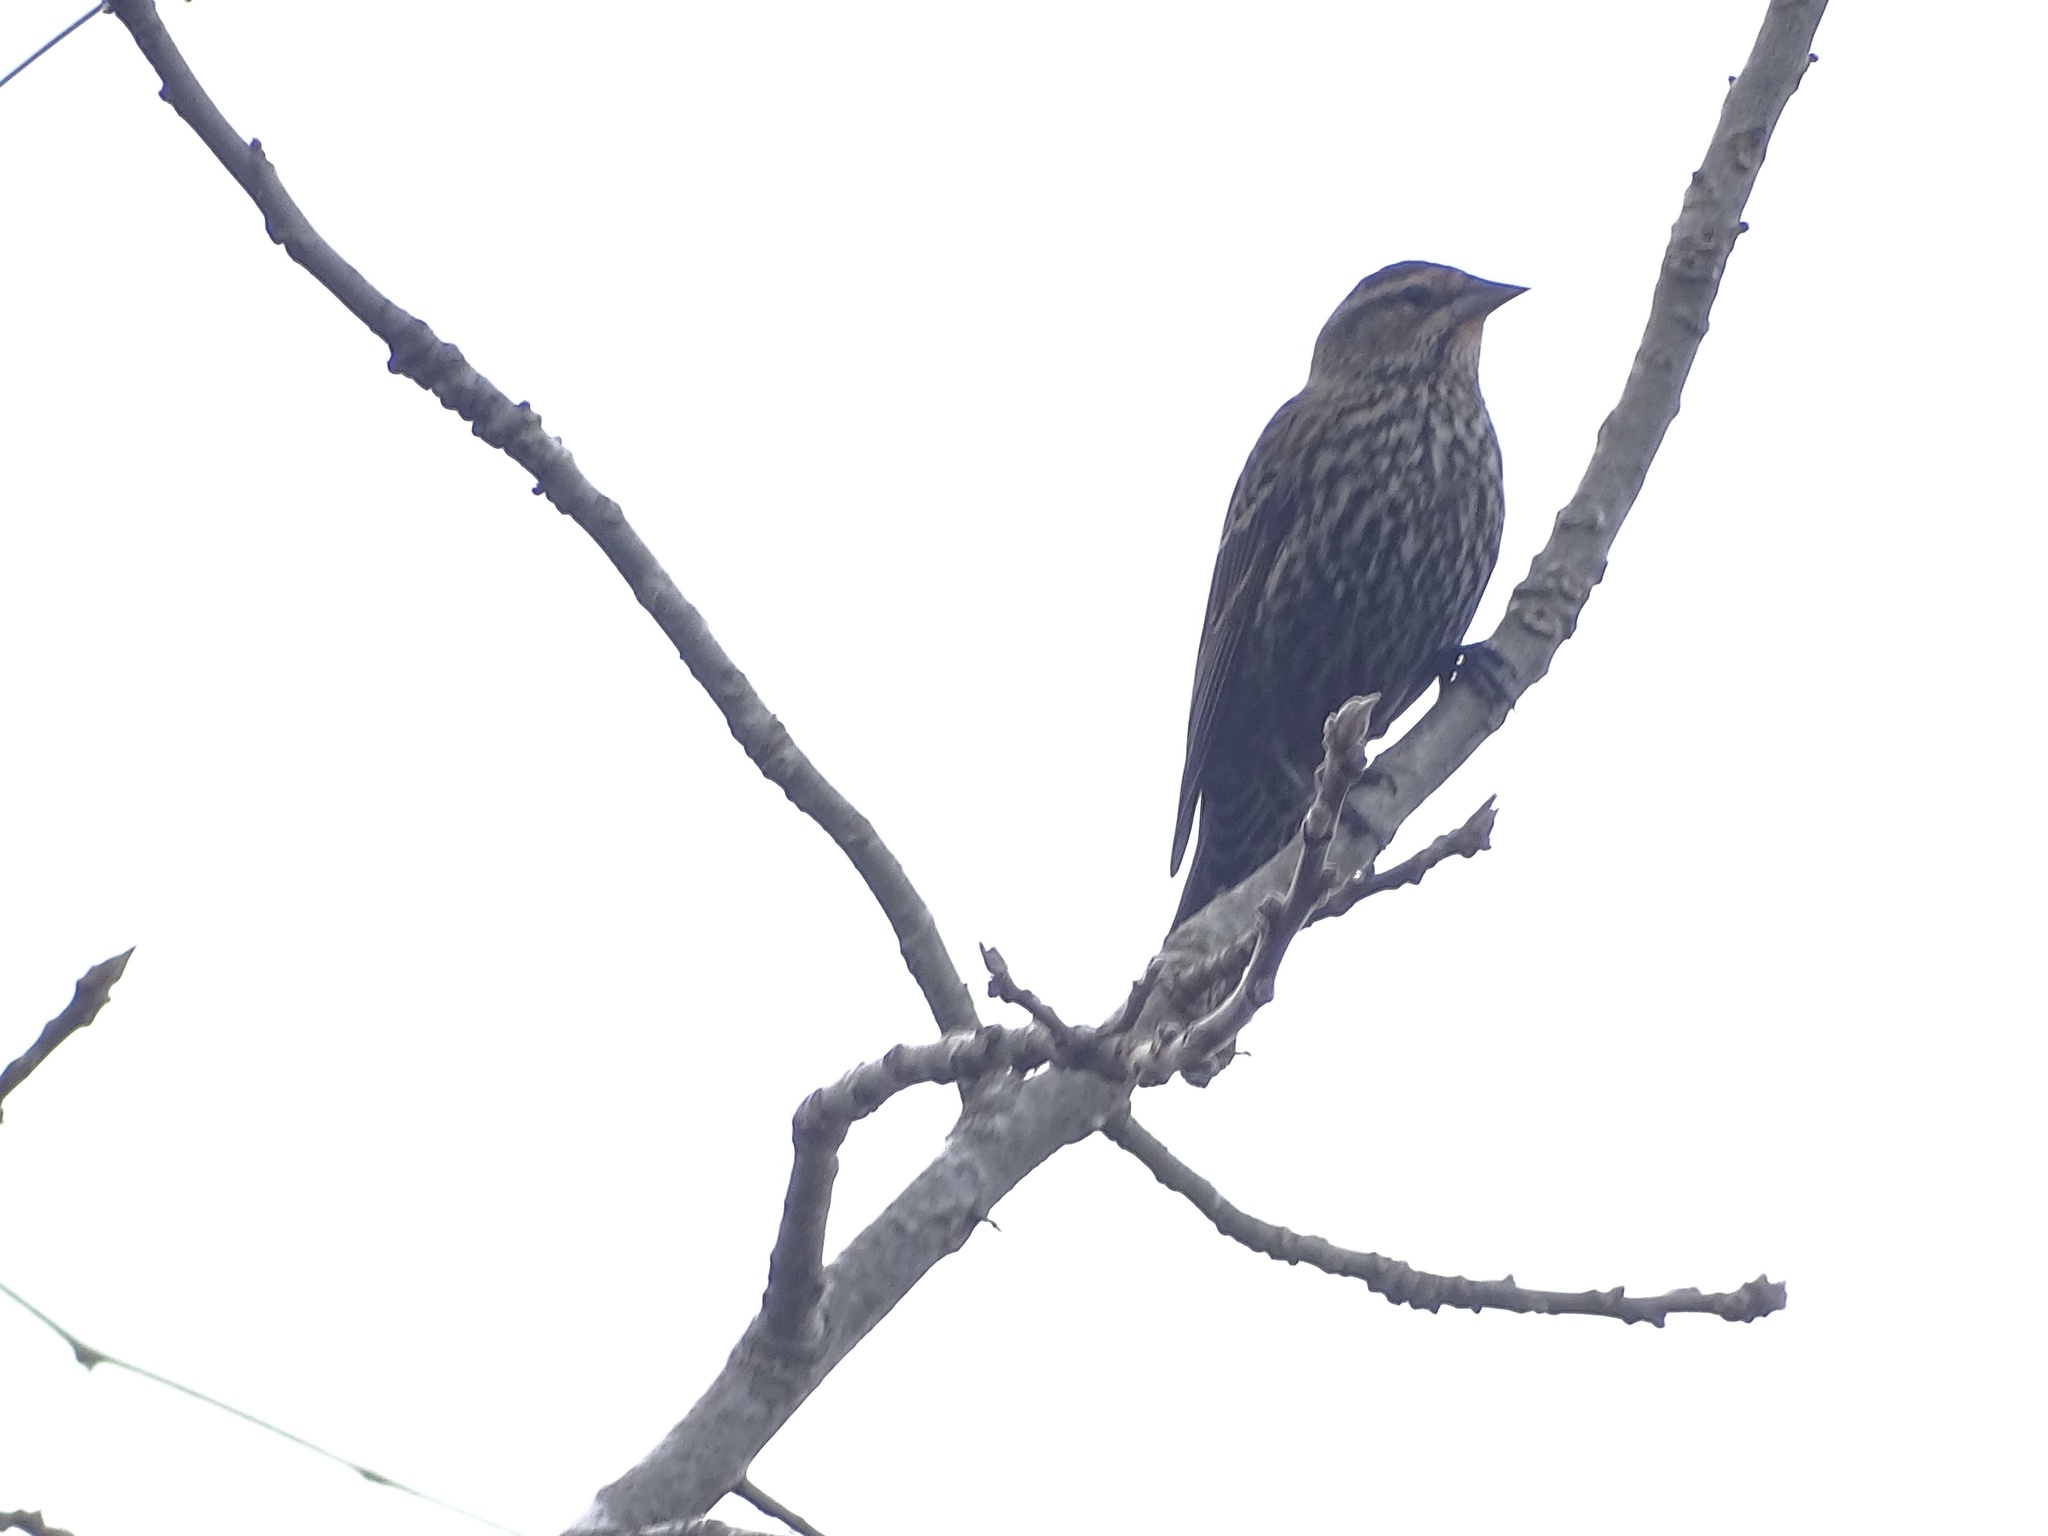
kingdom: Animalia
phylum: Chordata
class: Aves
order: Passeriformes
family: Icteridae
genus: Agelaius
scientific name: Agelaius phoeniceus
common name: Red-winged blackbird
